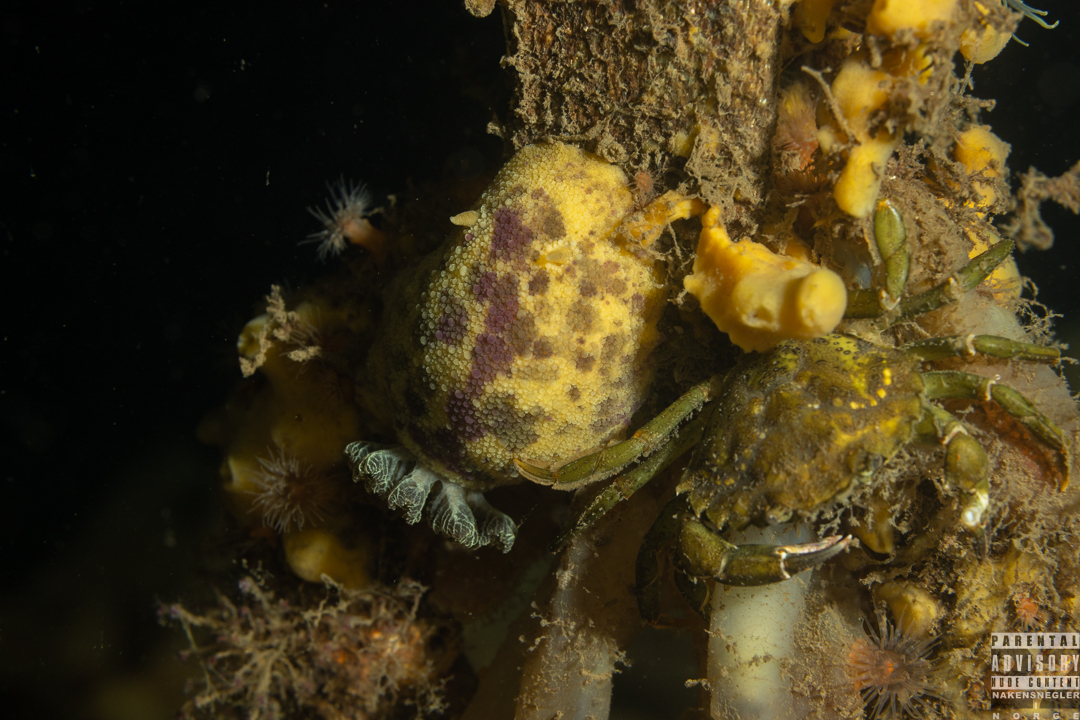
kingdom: Animalia
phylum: Mollusca
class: Gastropoda
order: Nudibranchia
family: Dorididae
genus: Doris
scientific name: Doris pseudoargus
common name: Sea lemon
